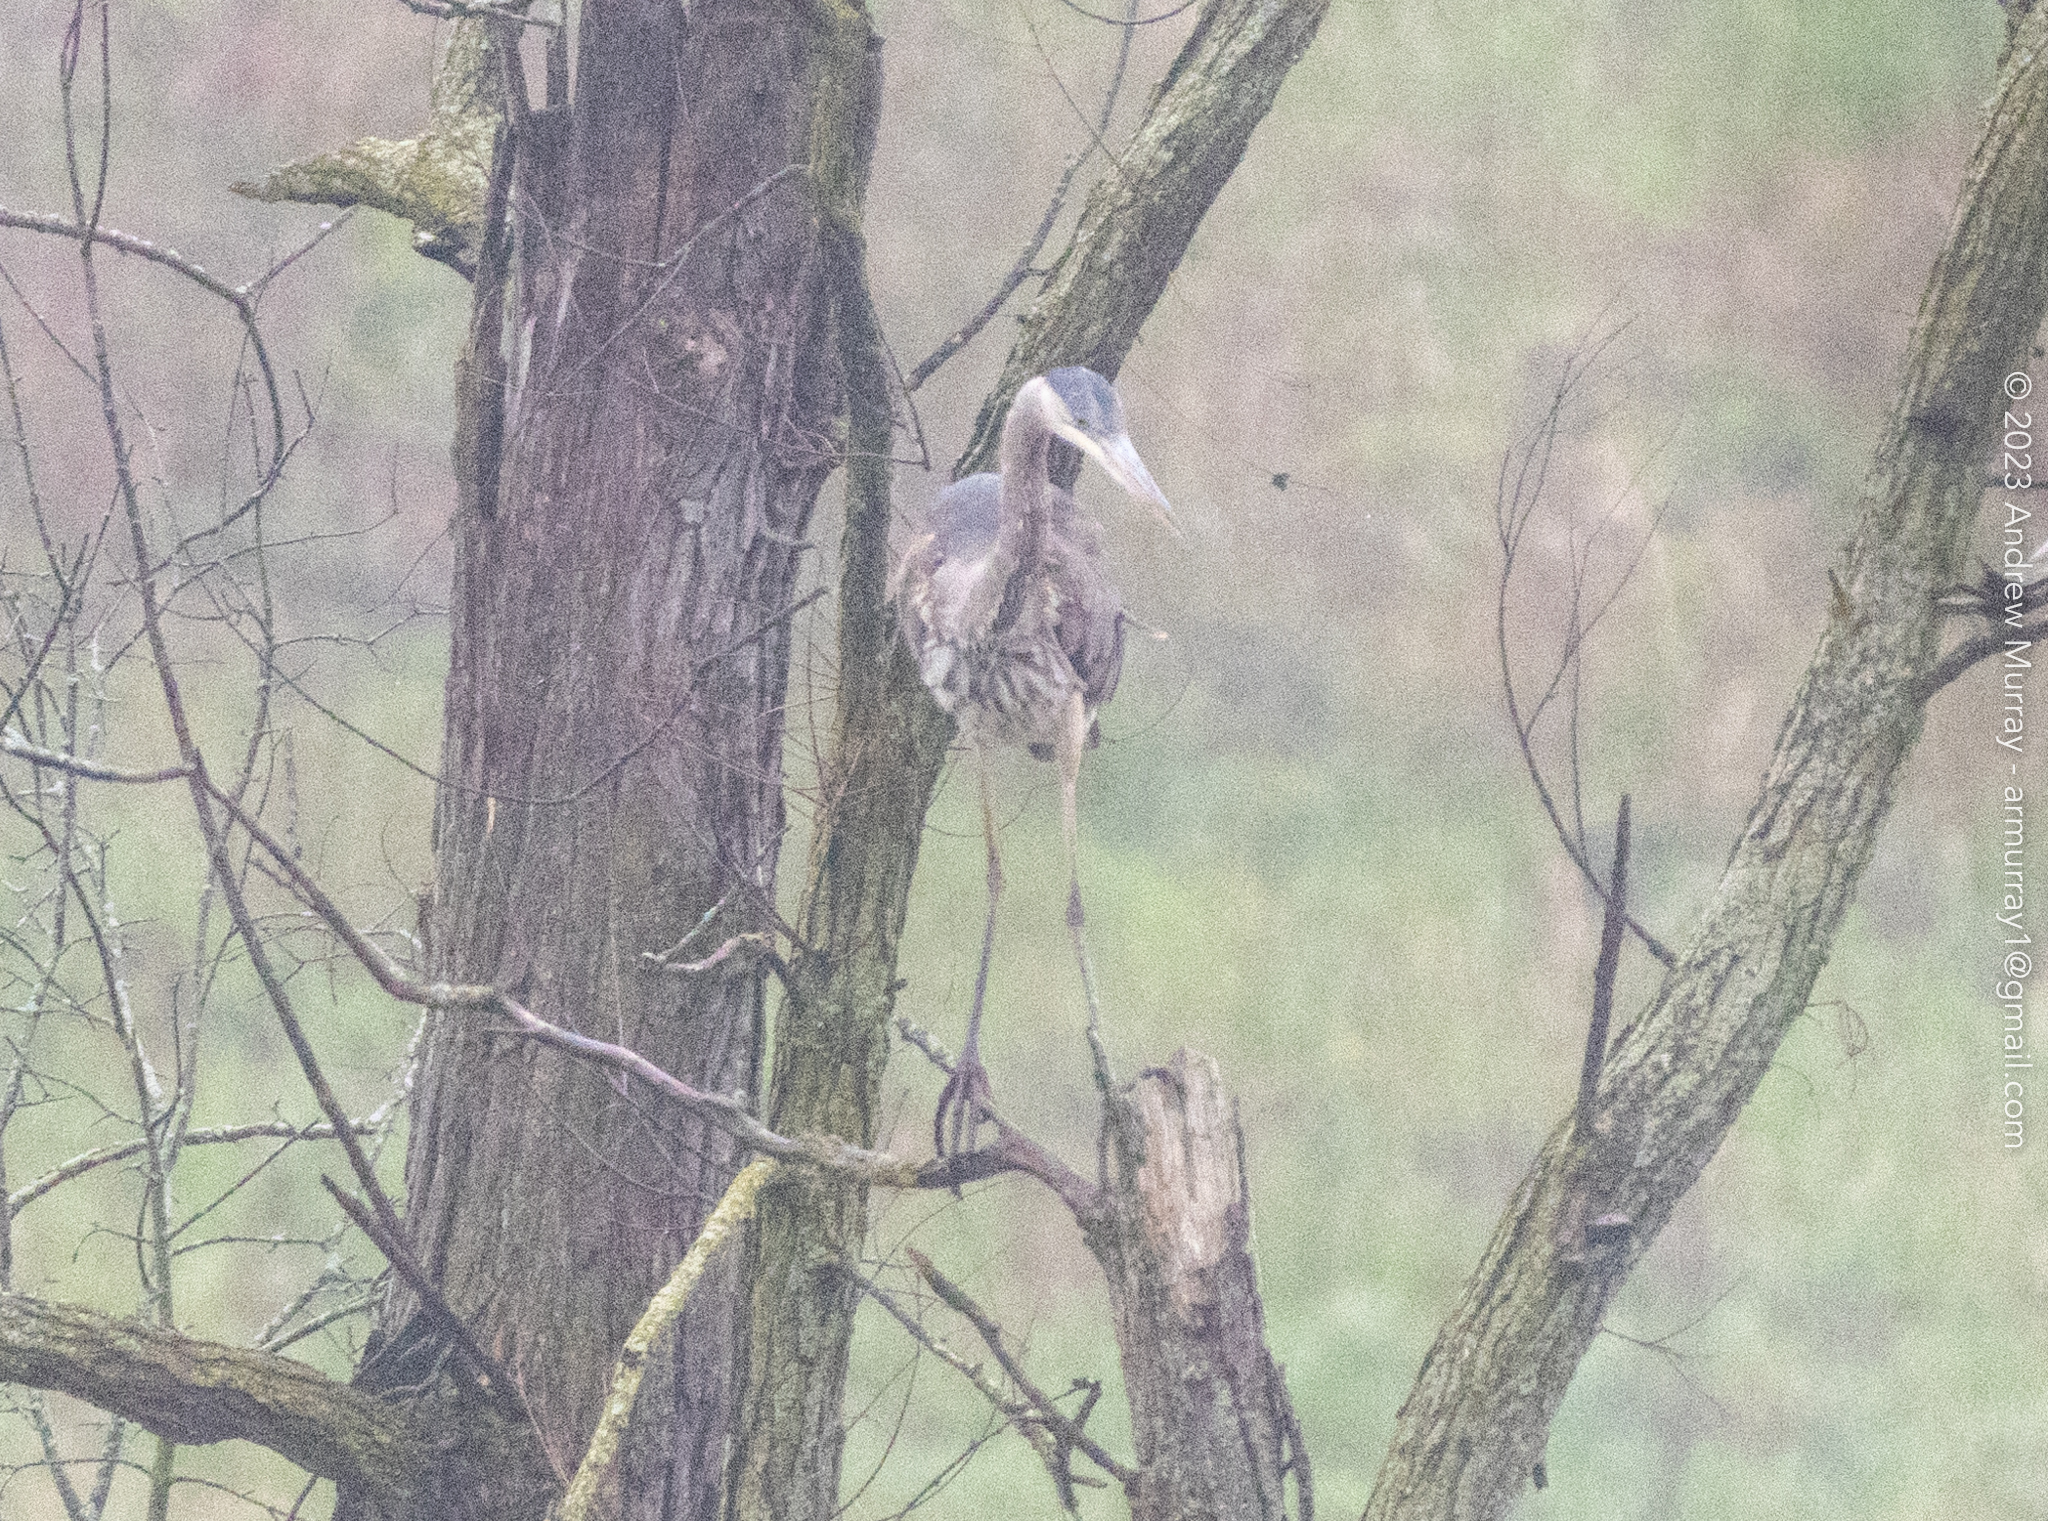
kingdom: Animalia
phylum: Chordata
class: Aves
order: Pelecaniformes
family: Ardeidae
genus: Ardea
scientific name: Ardea herodias
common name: Great blue heron
